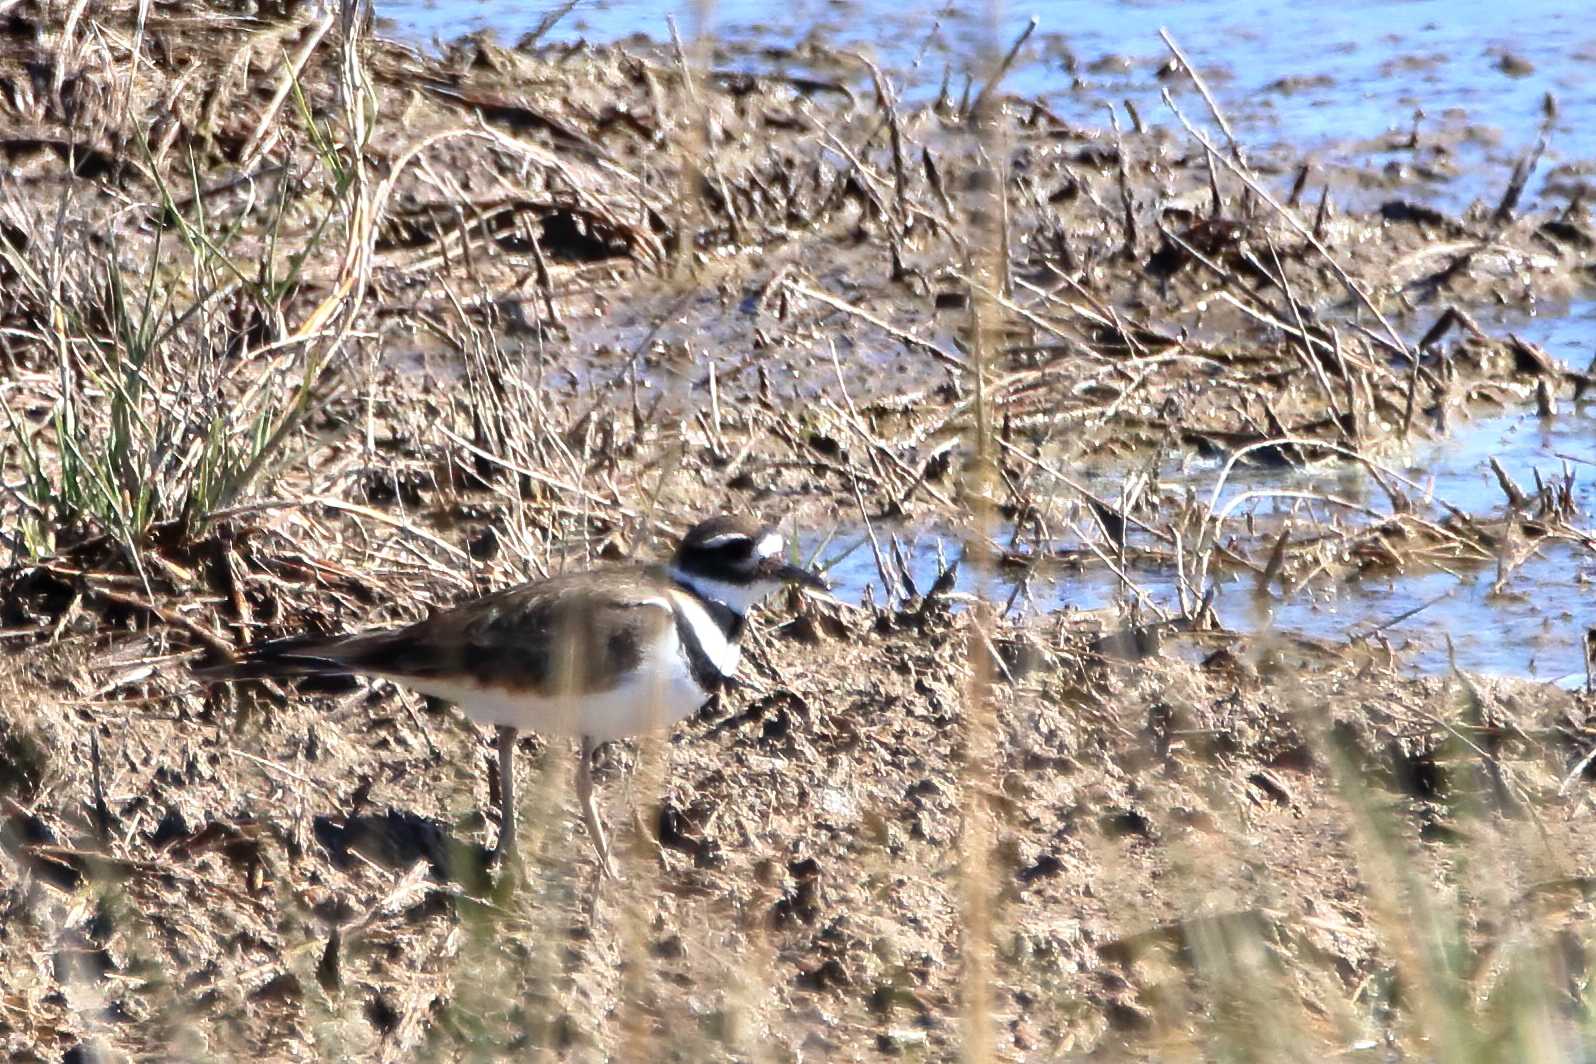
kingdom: Animalia
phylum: Chordata
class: Aves
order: Charadriiformes
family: Charadriidae
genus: Charadrius
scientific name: Charadrius vociferus
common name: Killdeer
